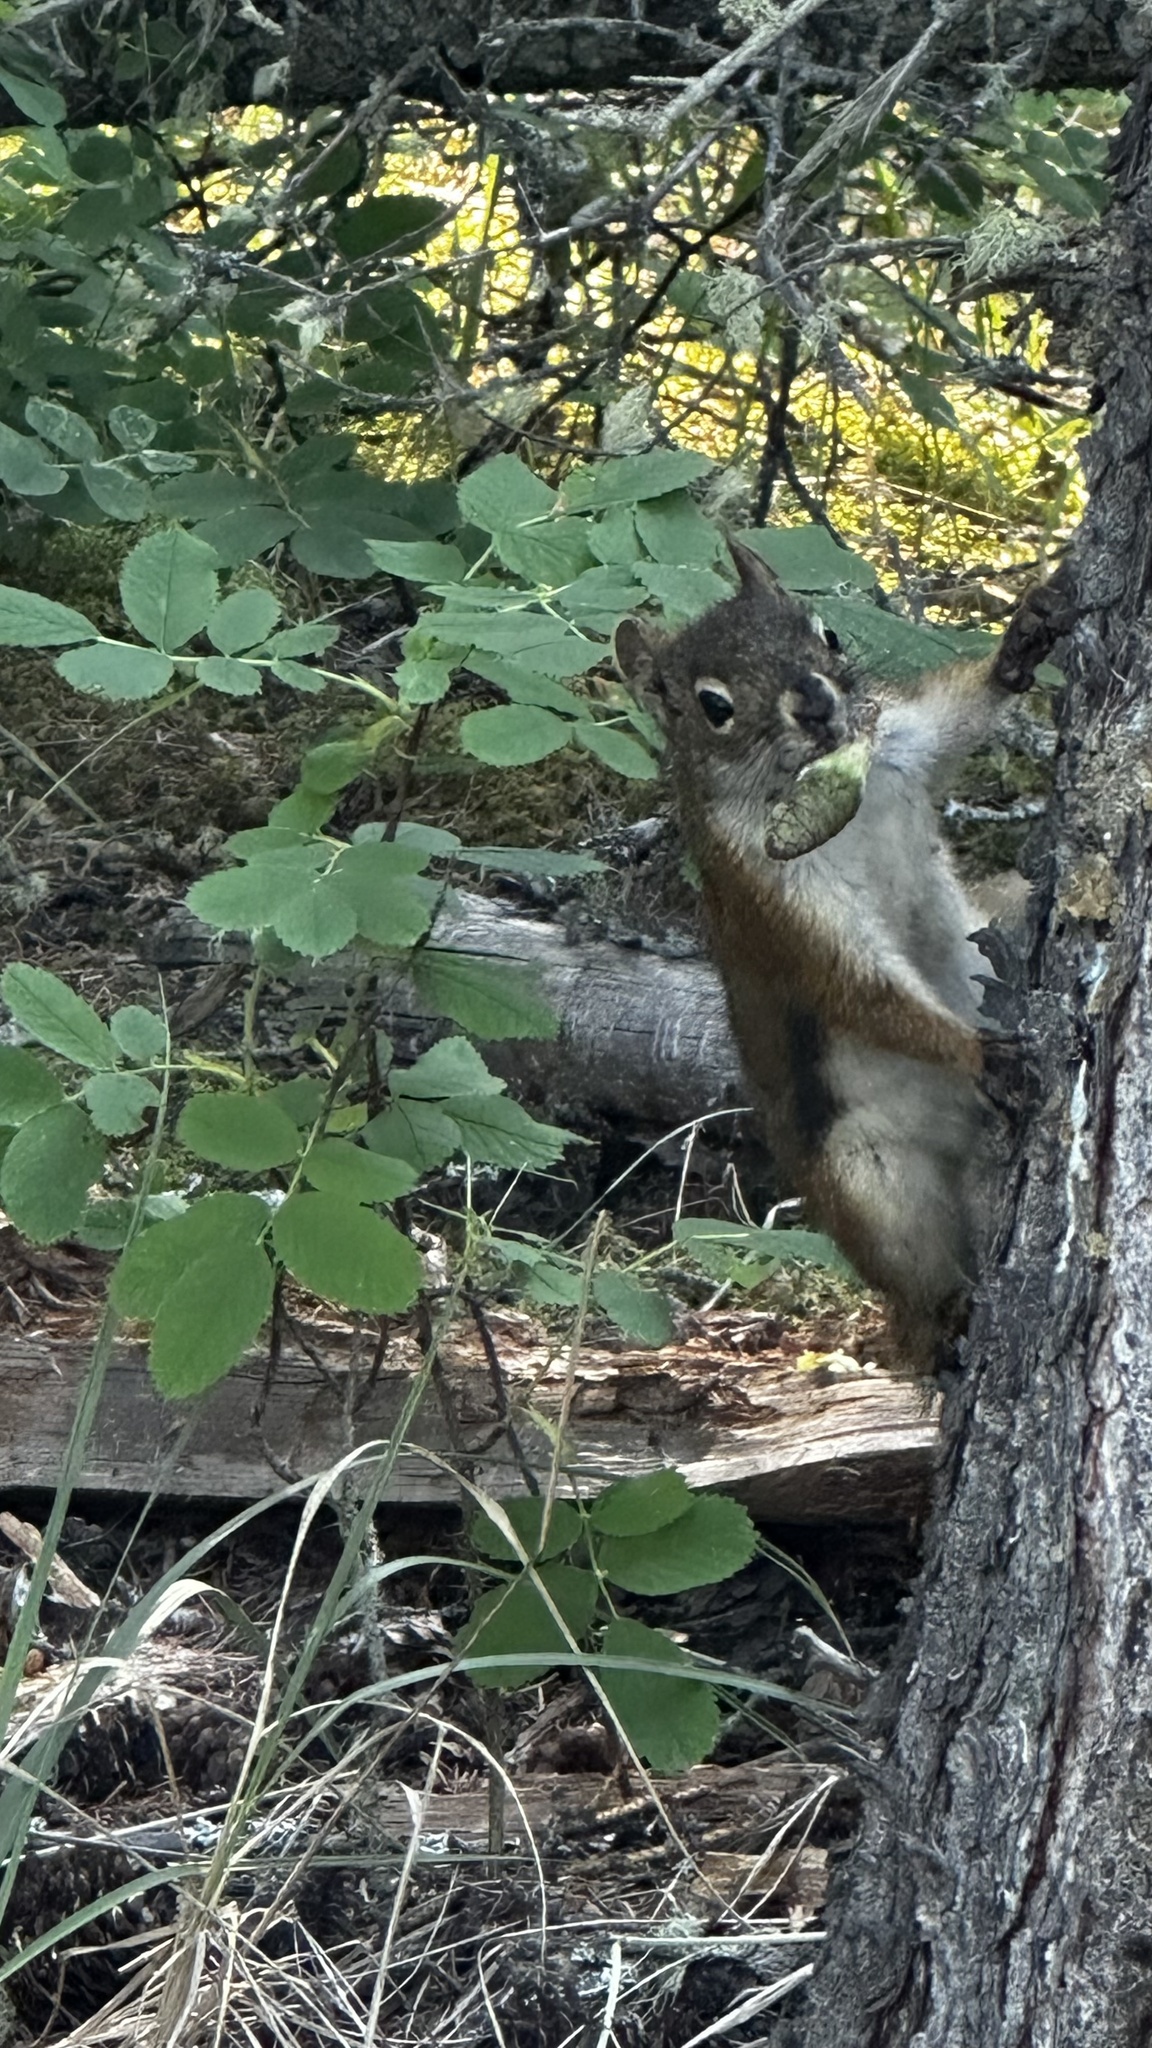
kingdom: Animalia
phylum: Chordata
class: Mammalia
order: Rodentia
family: Sciuridae
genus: Tamiasciurus
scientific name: Tamiasciurus hudsonicus
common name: Red squirrel
